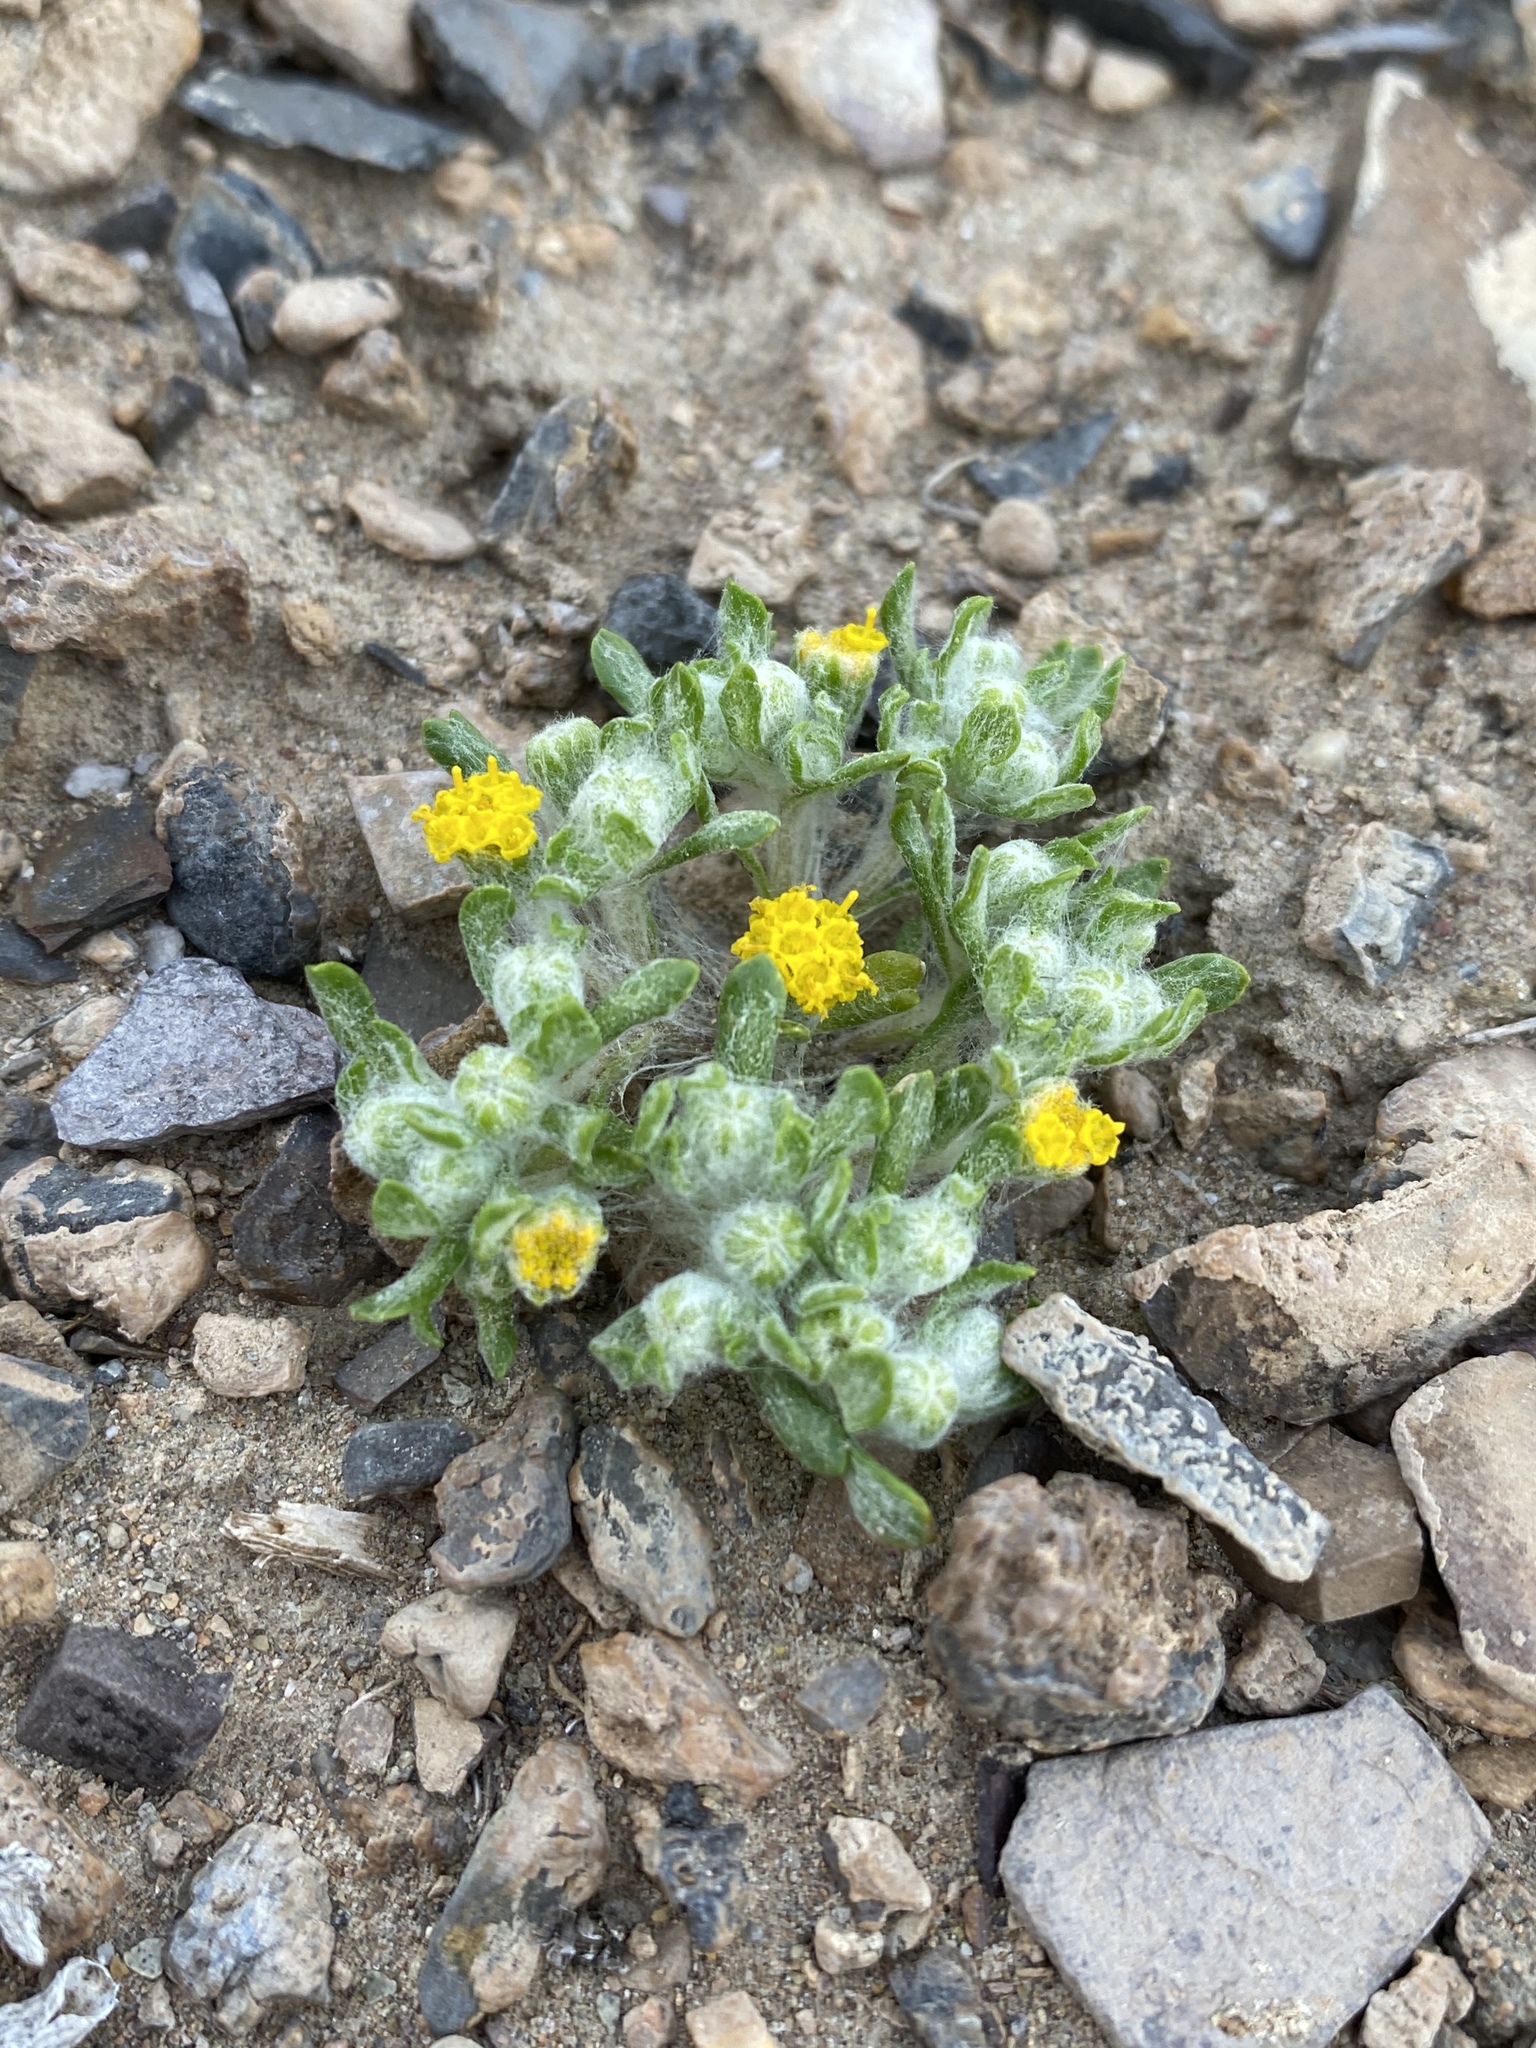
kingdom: Plantae
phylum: Tracheophyta
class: Magnoliopsida
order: Asterales
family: Asteraceae
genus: Eriophyllum
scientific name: Eriophyllum pringlei
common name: Pringle's woolly-sunflower
